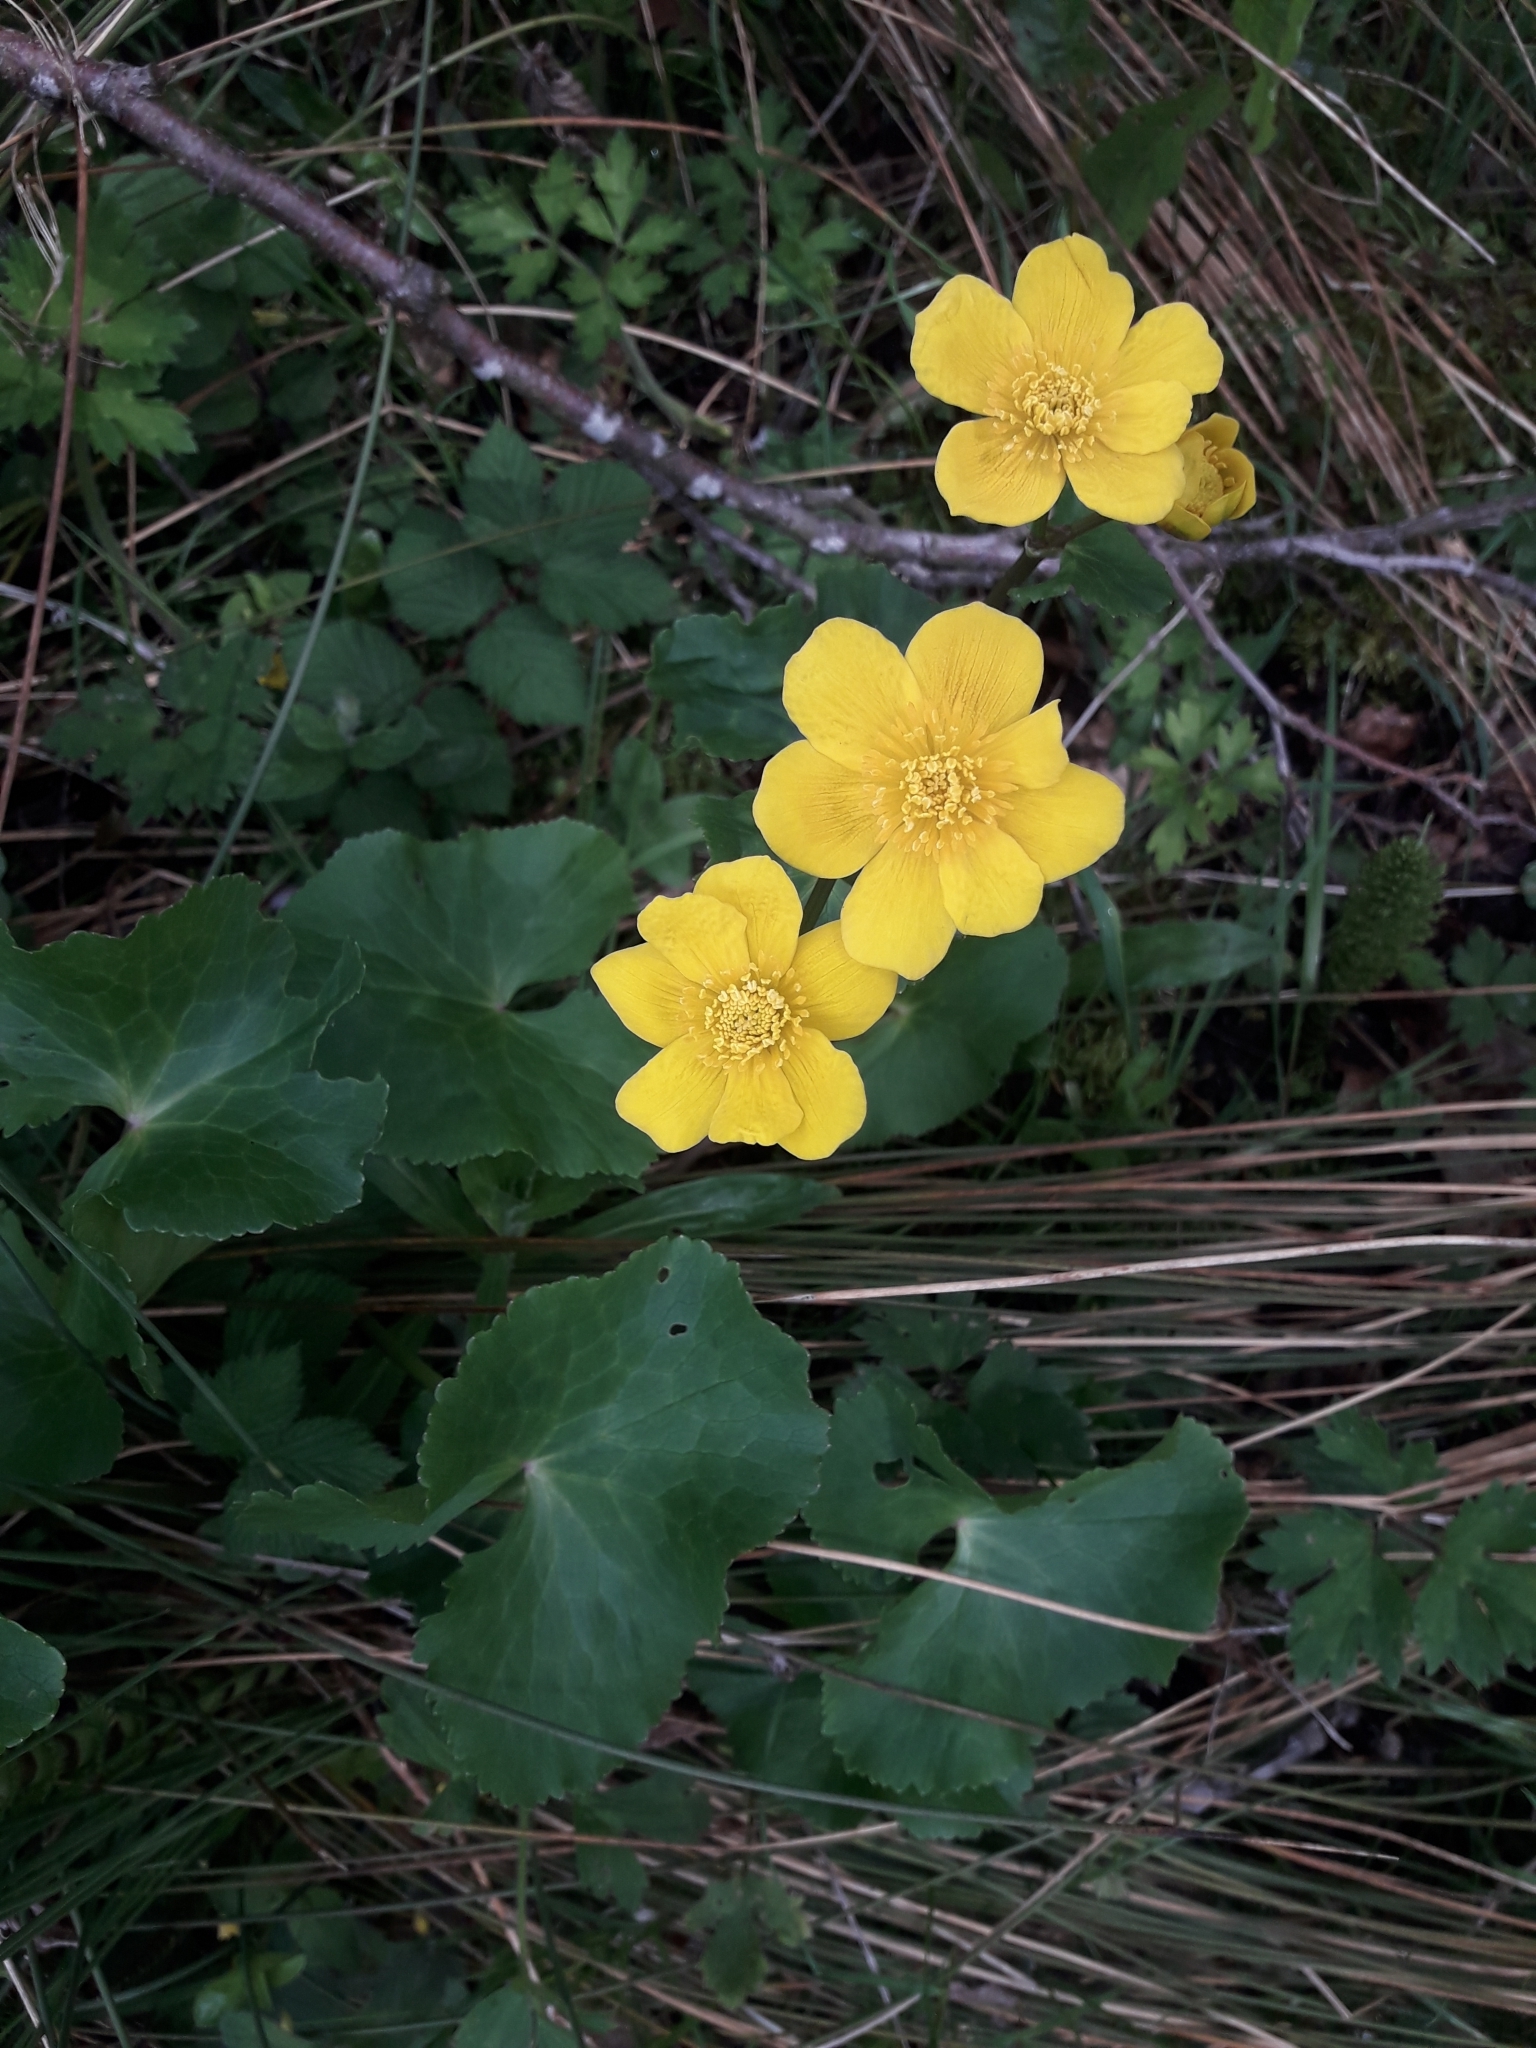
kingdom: Plantae
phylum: Tracheophyta
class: Magnoliopsida
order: Ranunculales
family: Ranunculaceae
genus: Caltha
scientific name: Caltha palustris
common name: Marsh marigold
